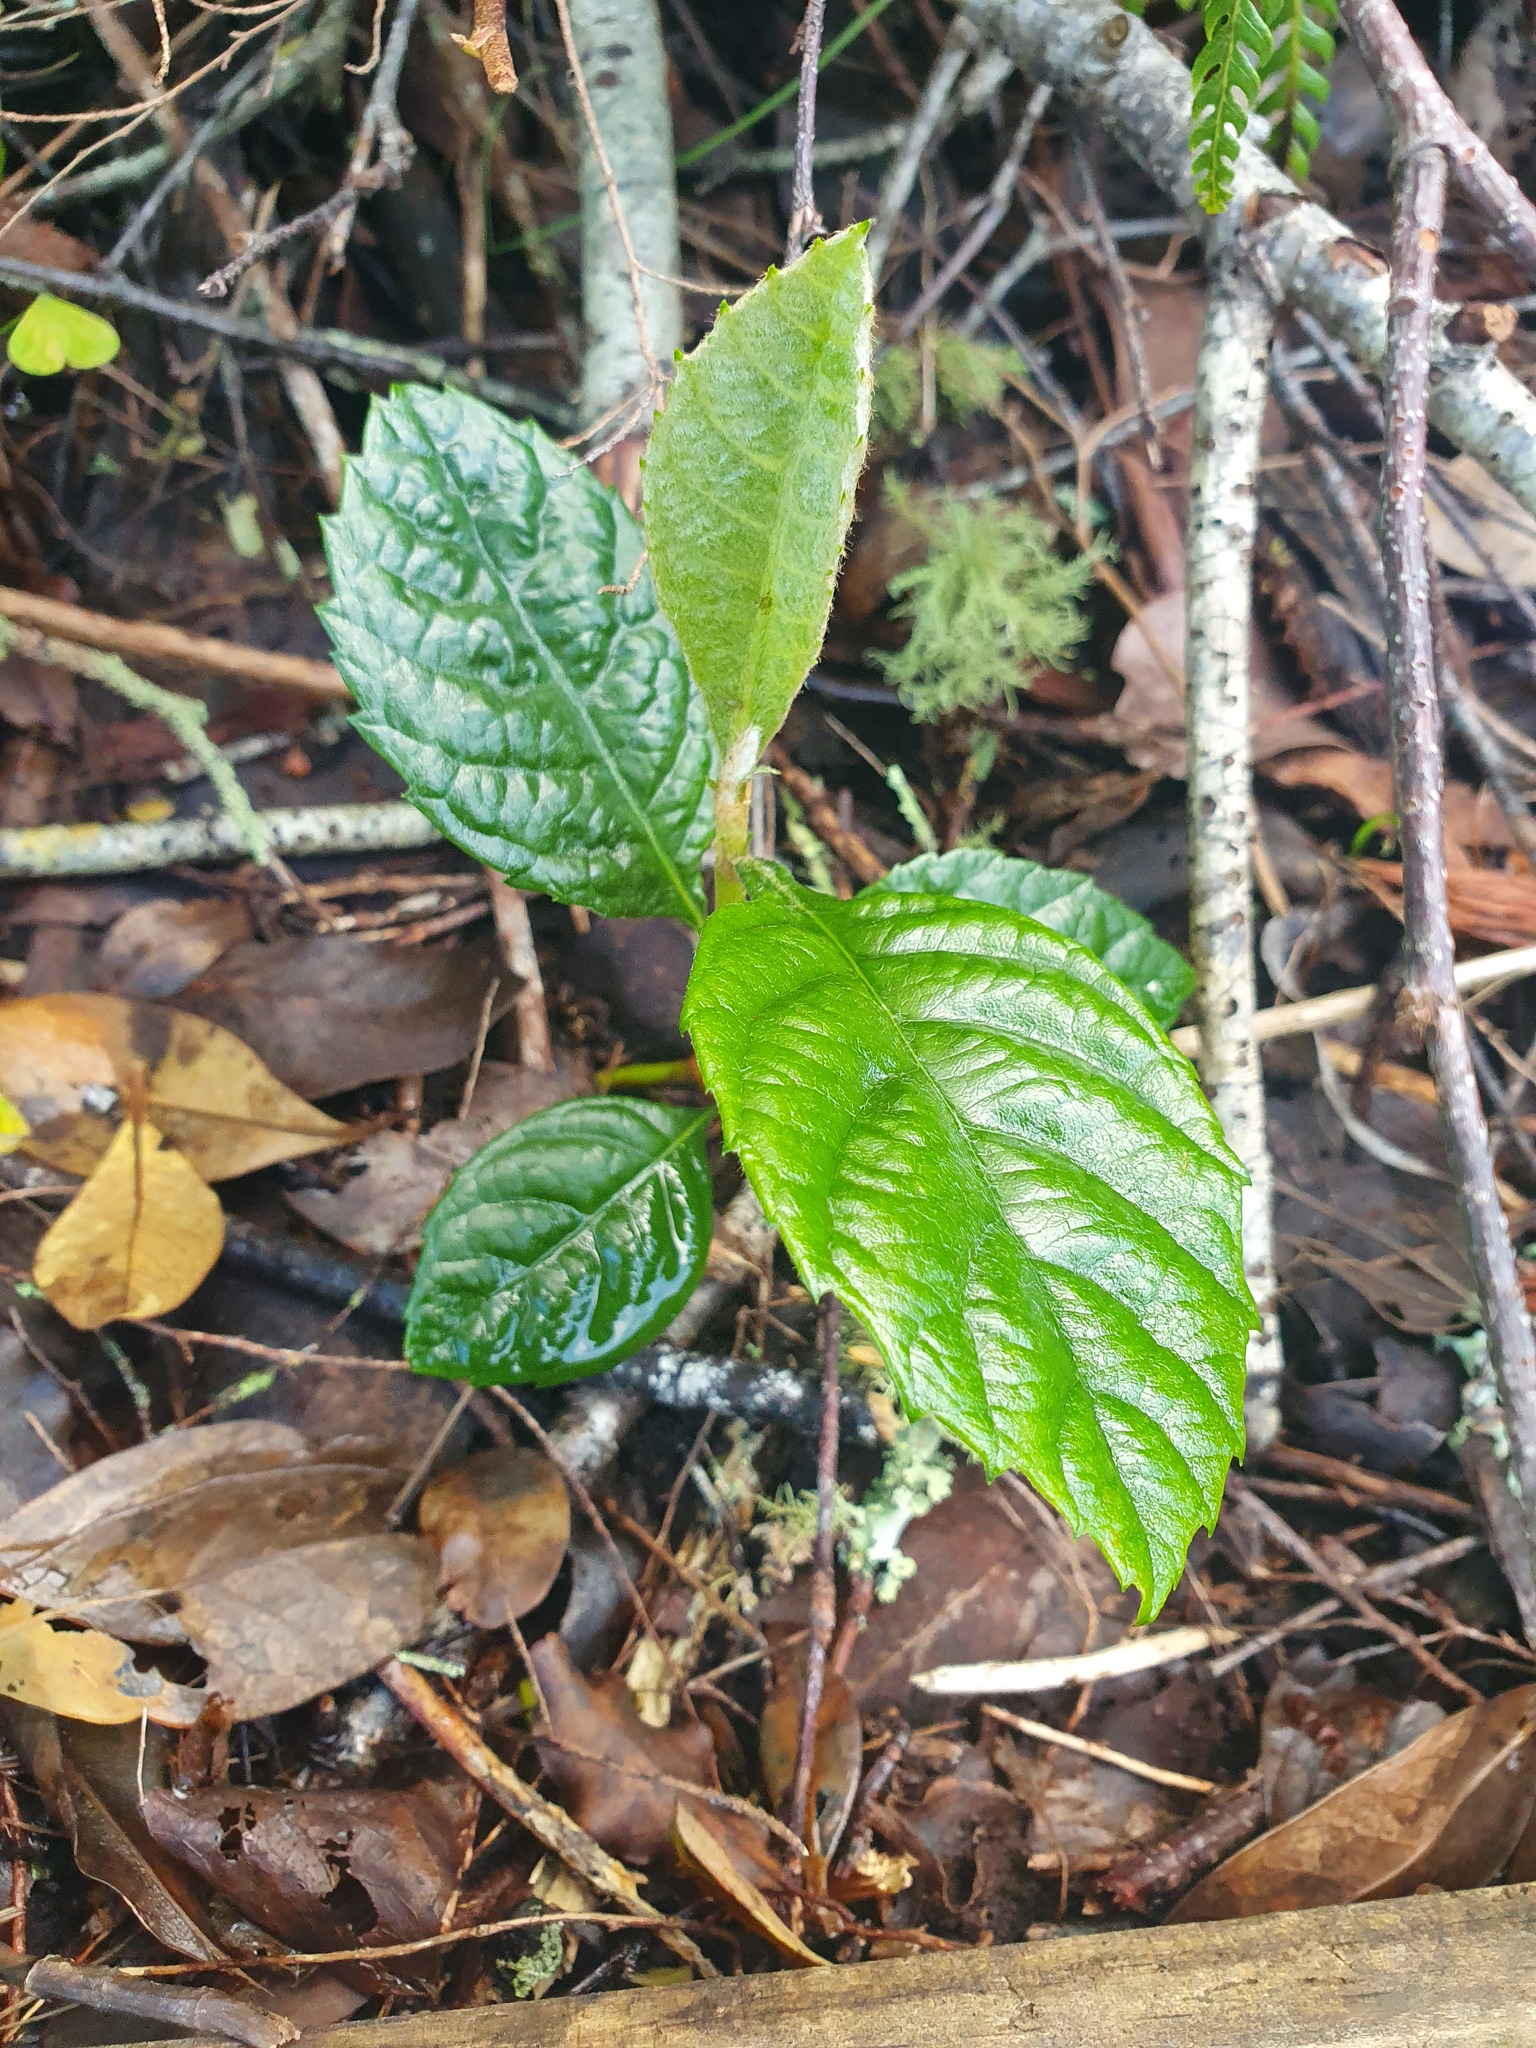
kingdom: Plantae
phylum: Tracheophyta
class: Magnoliopsida
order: Rosales
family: Rosaceae
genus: Rhaphiolepis
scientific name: Rhaphiolepis bibas
